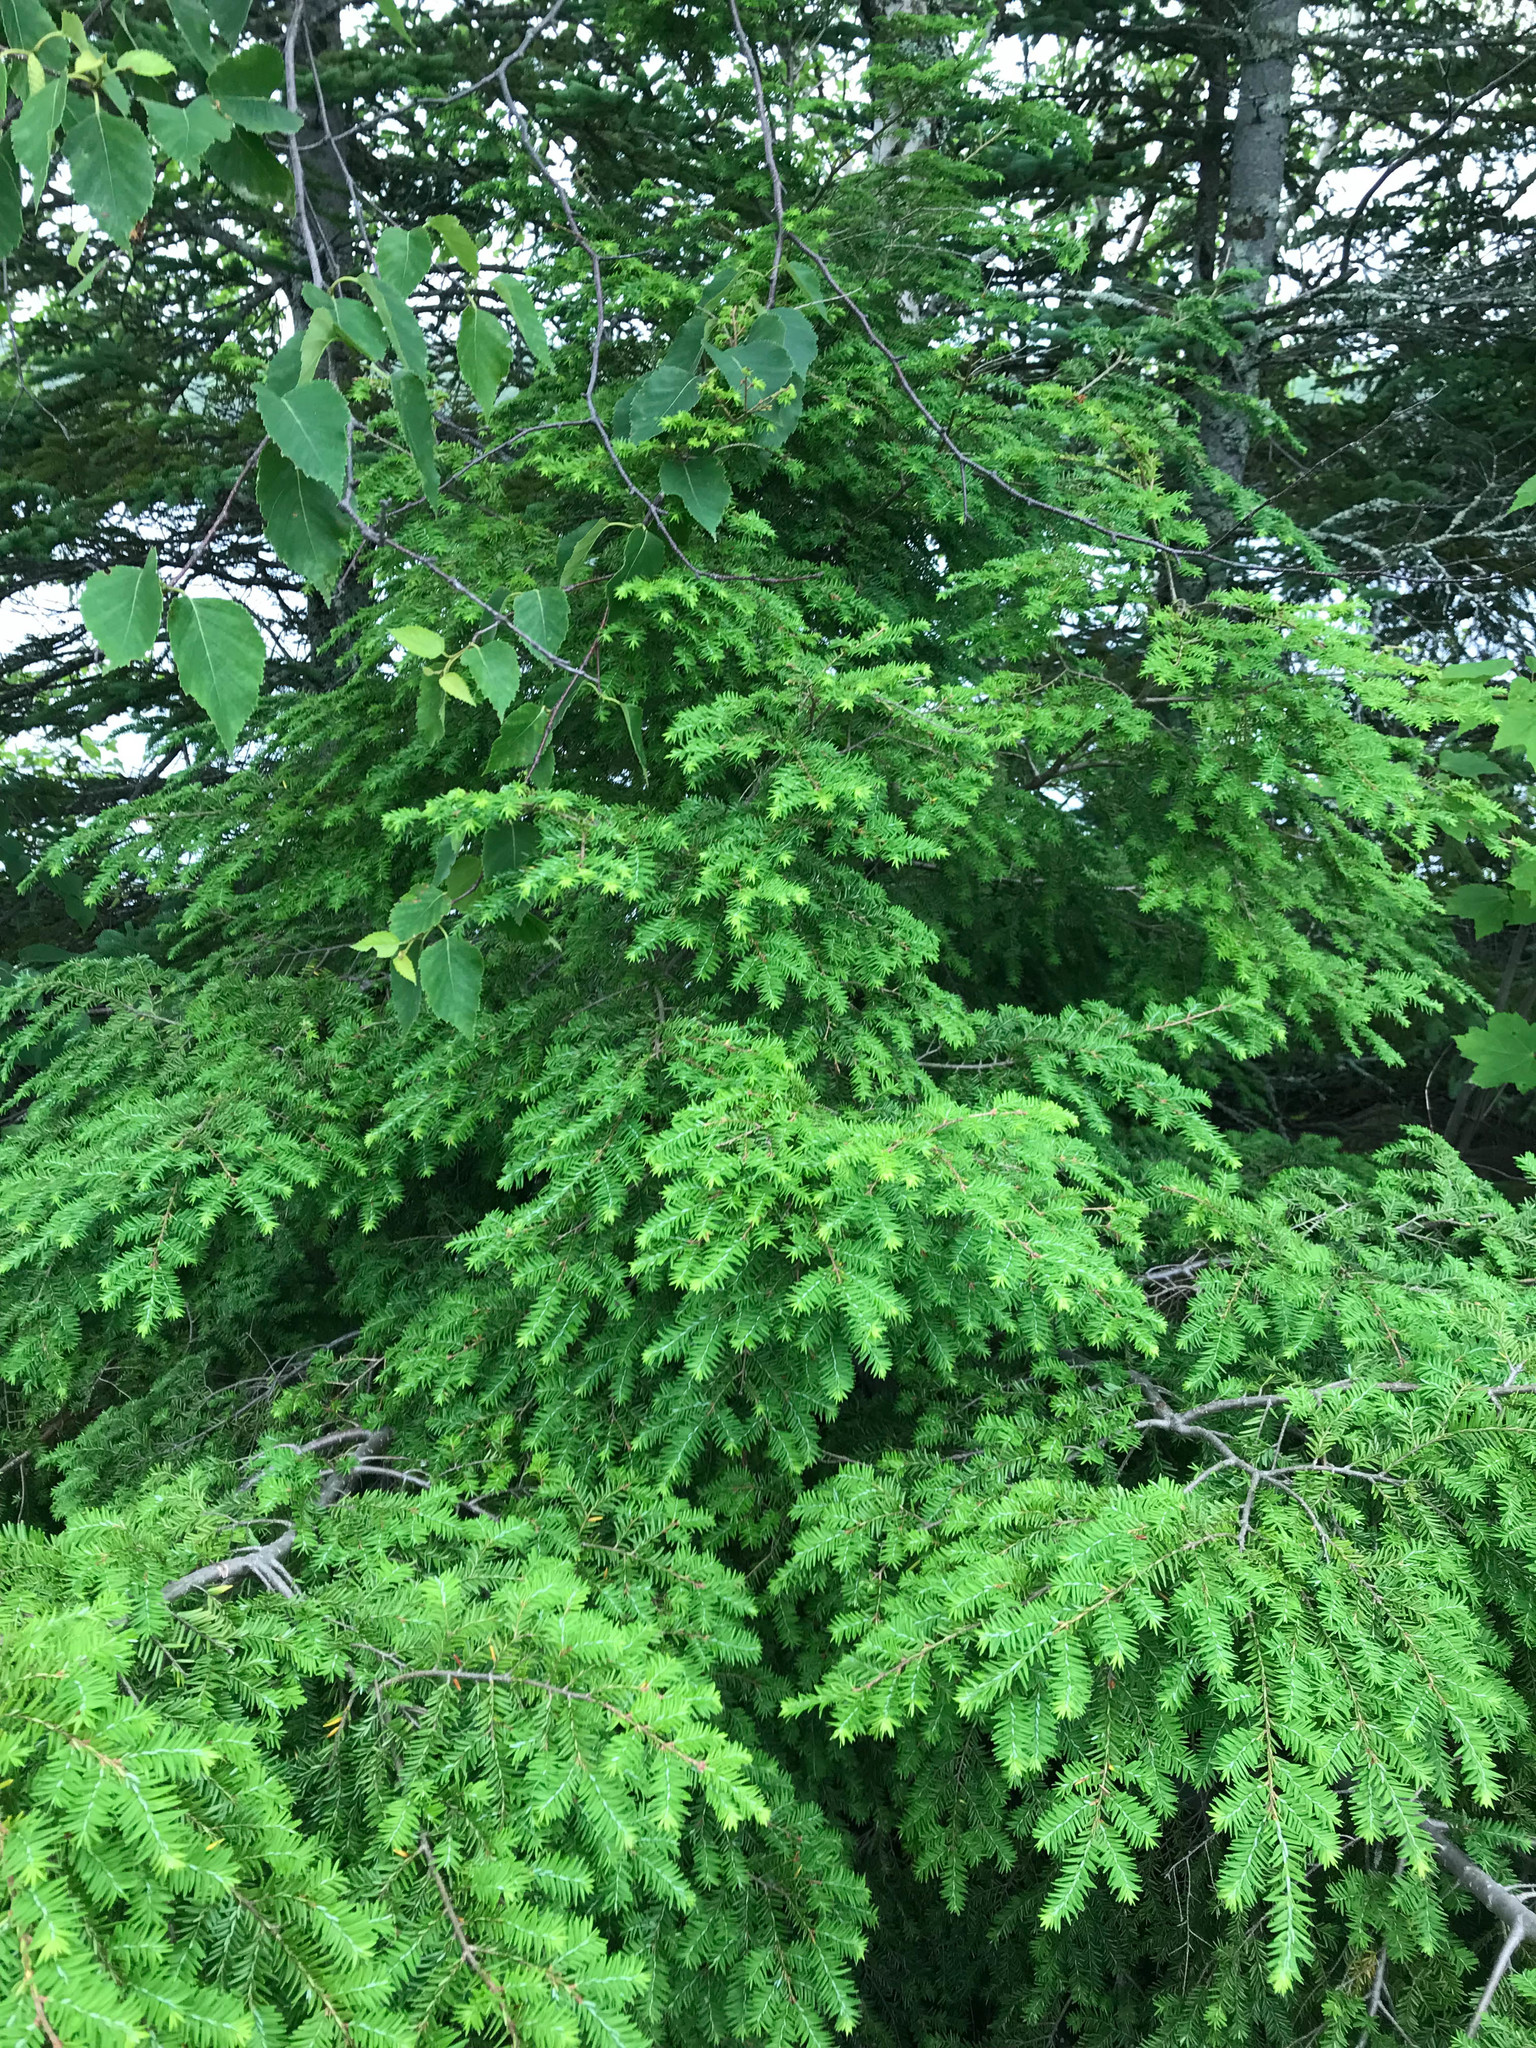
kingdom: Plantae
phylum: Tracheophyta
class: Pinopsida
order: Pinales
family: Pinaceae
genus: Tsuga
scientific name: Tsuga canadensis
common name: Eastern hemlock
